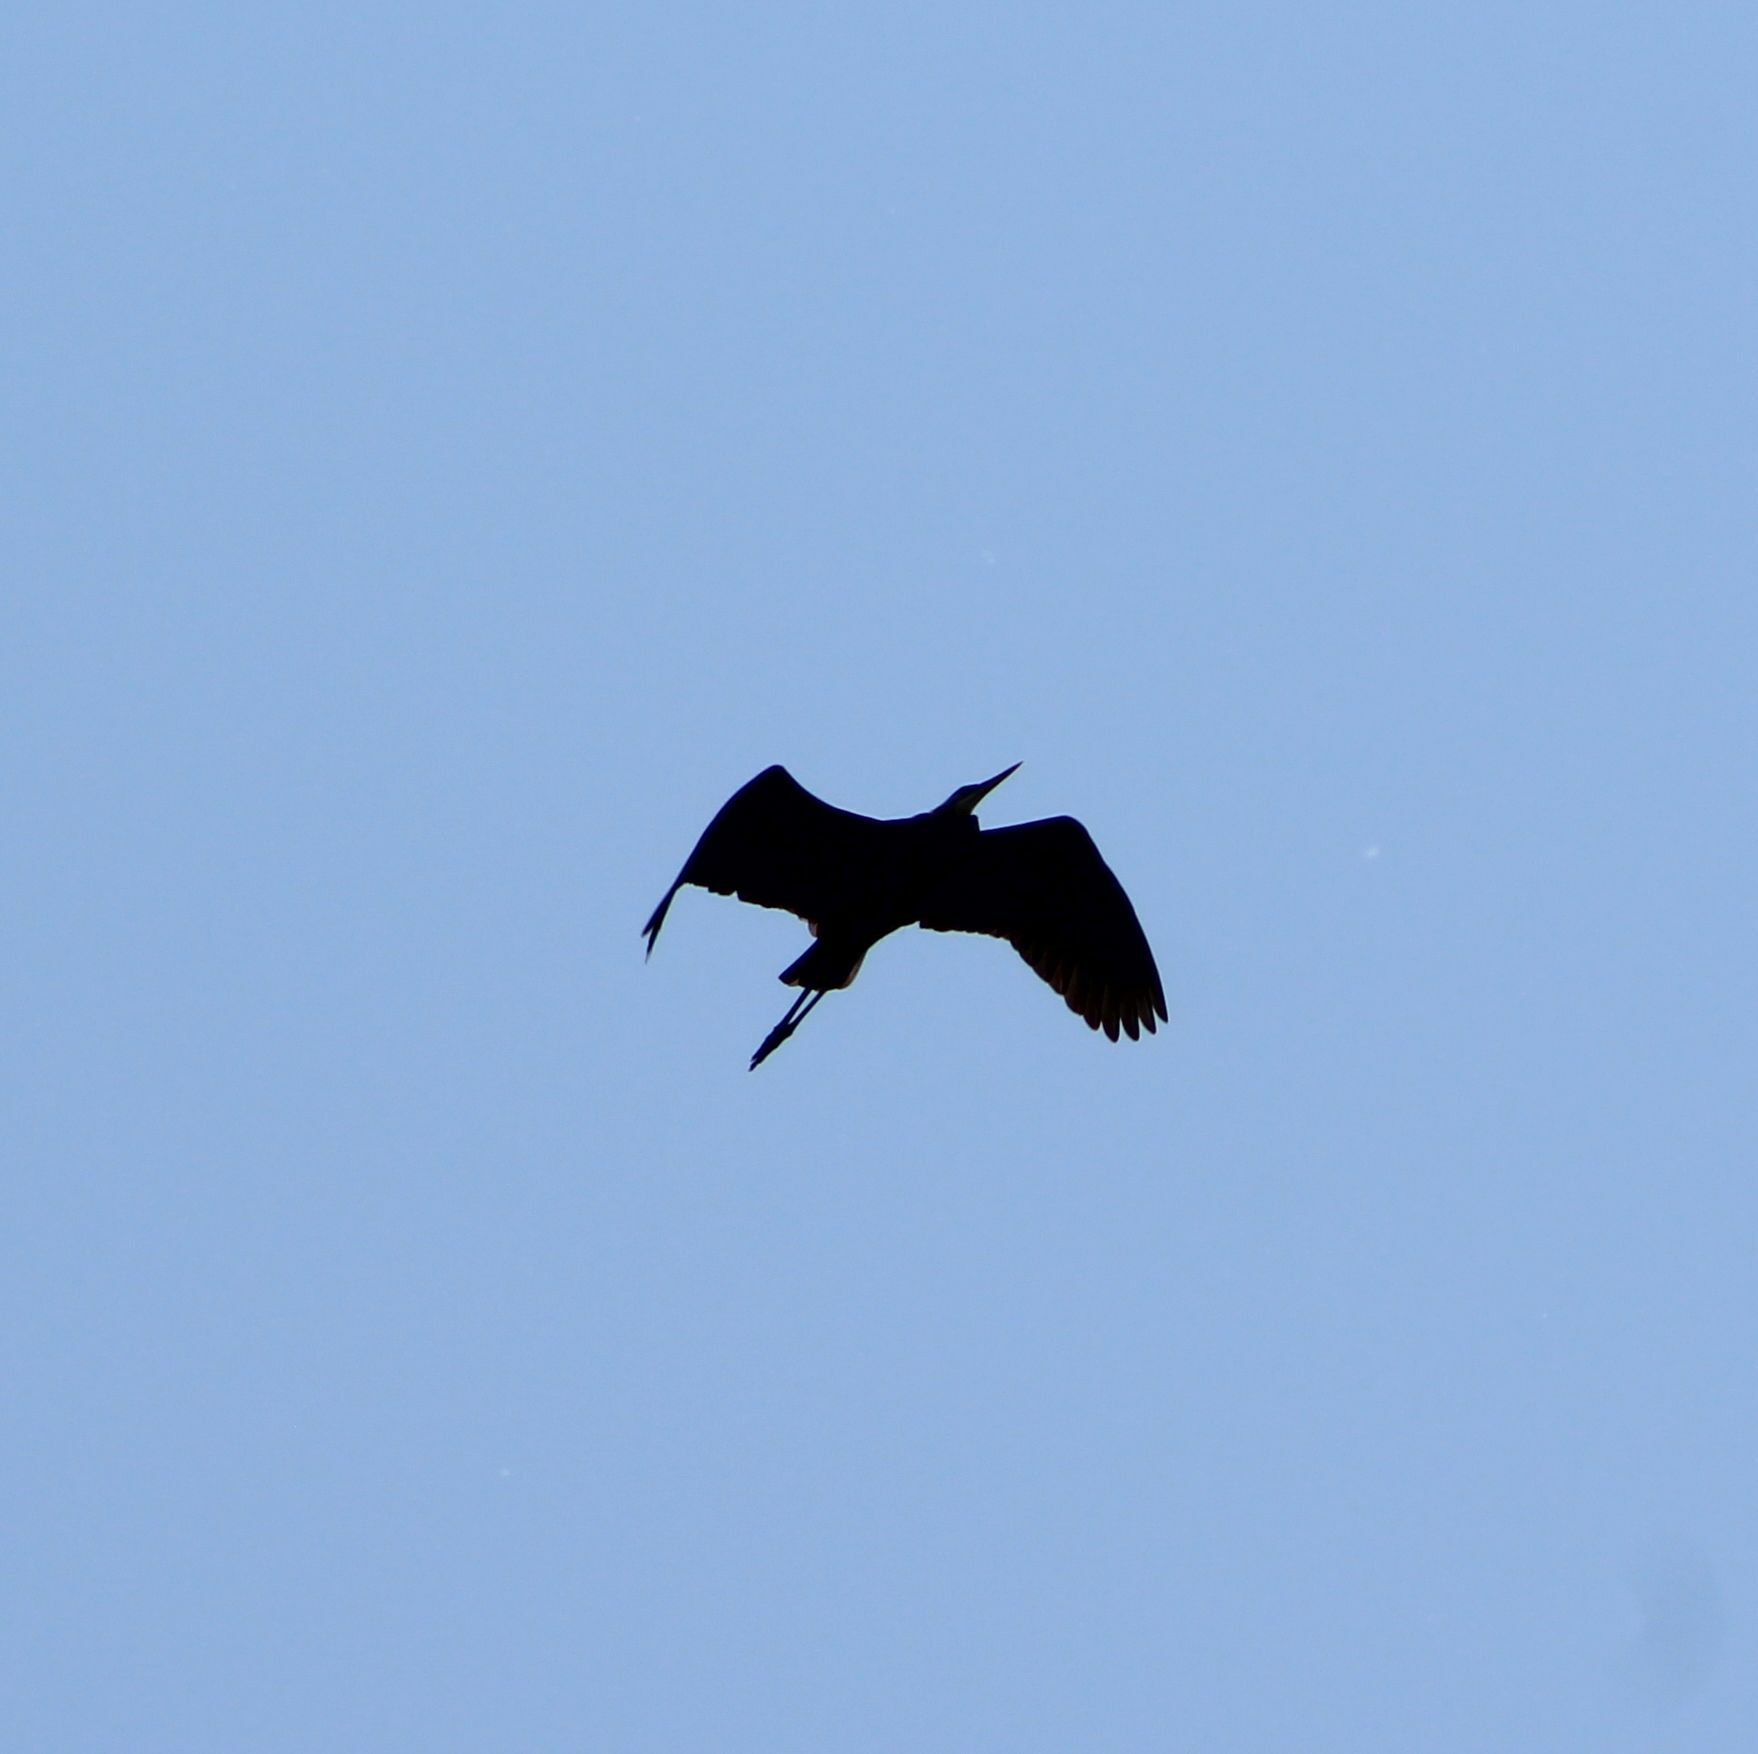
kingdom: Animalia
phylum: Chordata
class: Aves
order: Pelecaniformes
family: Ardeidae
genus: Ardea
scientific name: Ardea herodias
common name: Great blue heron
